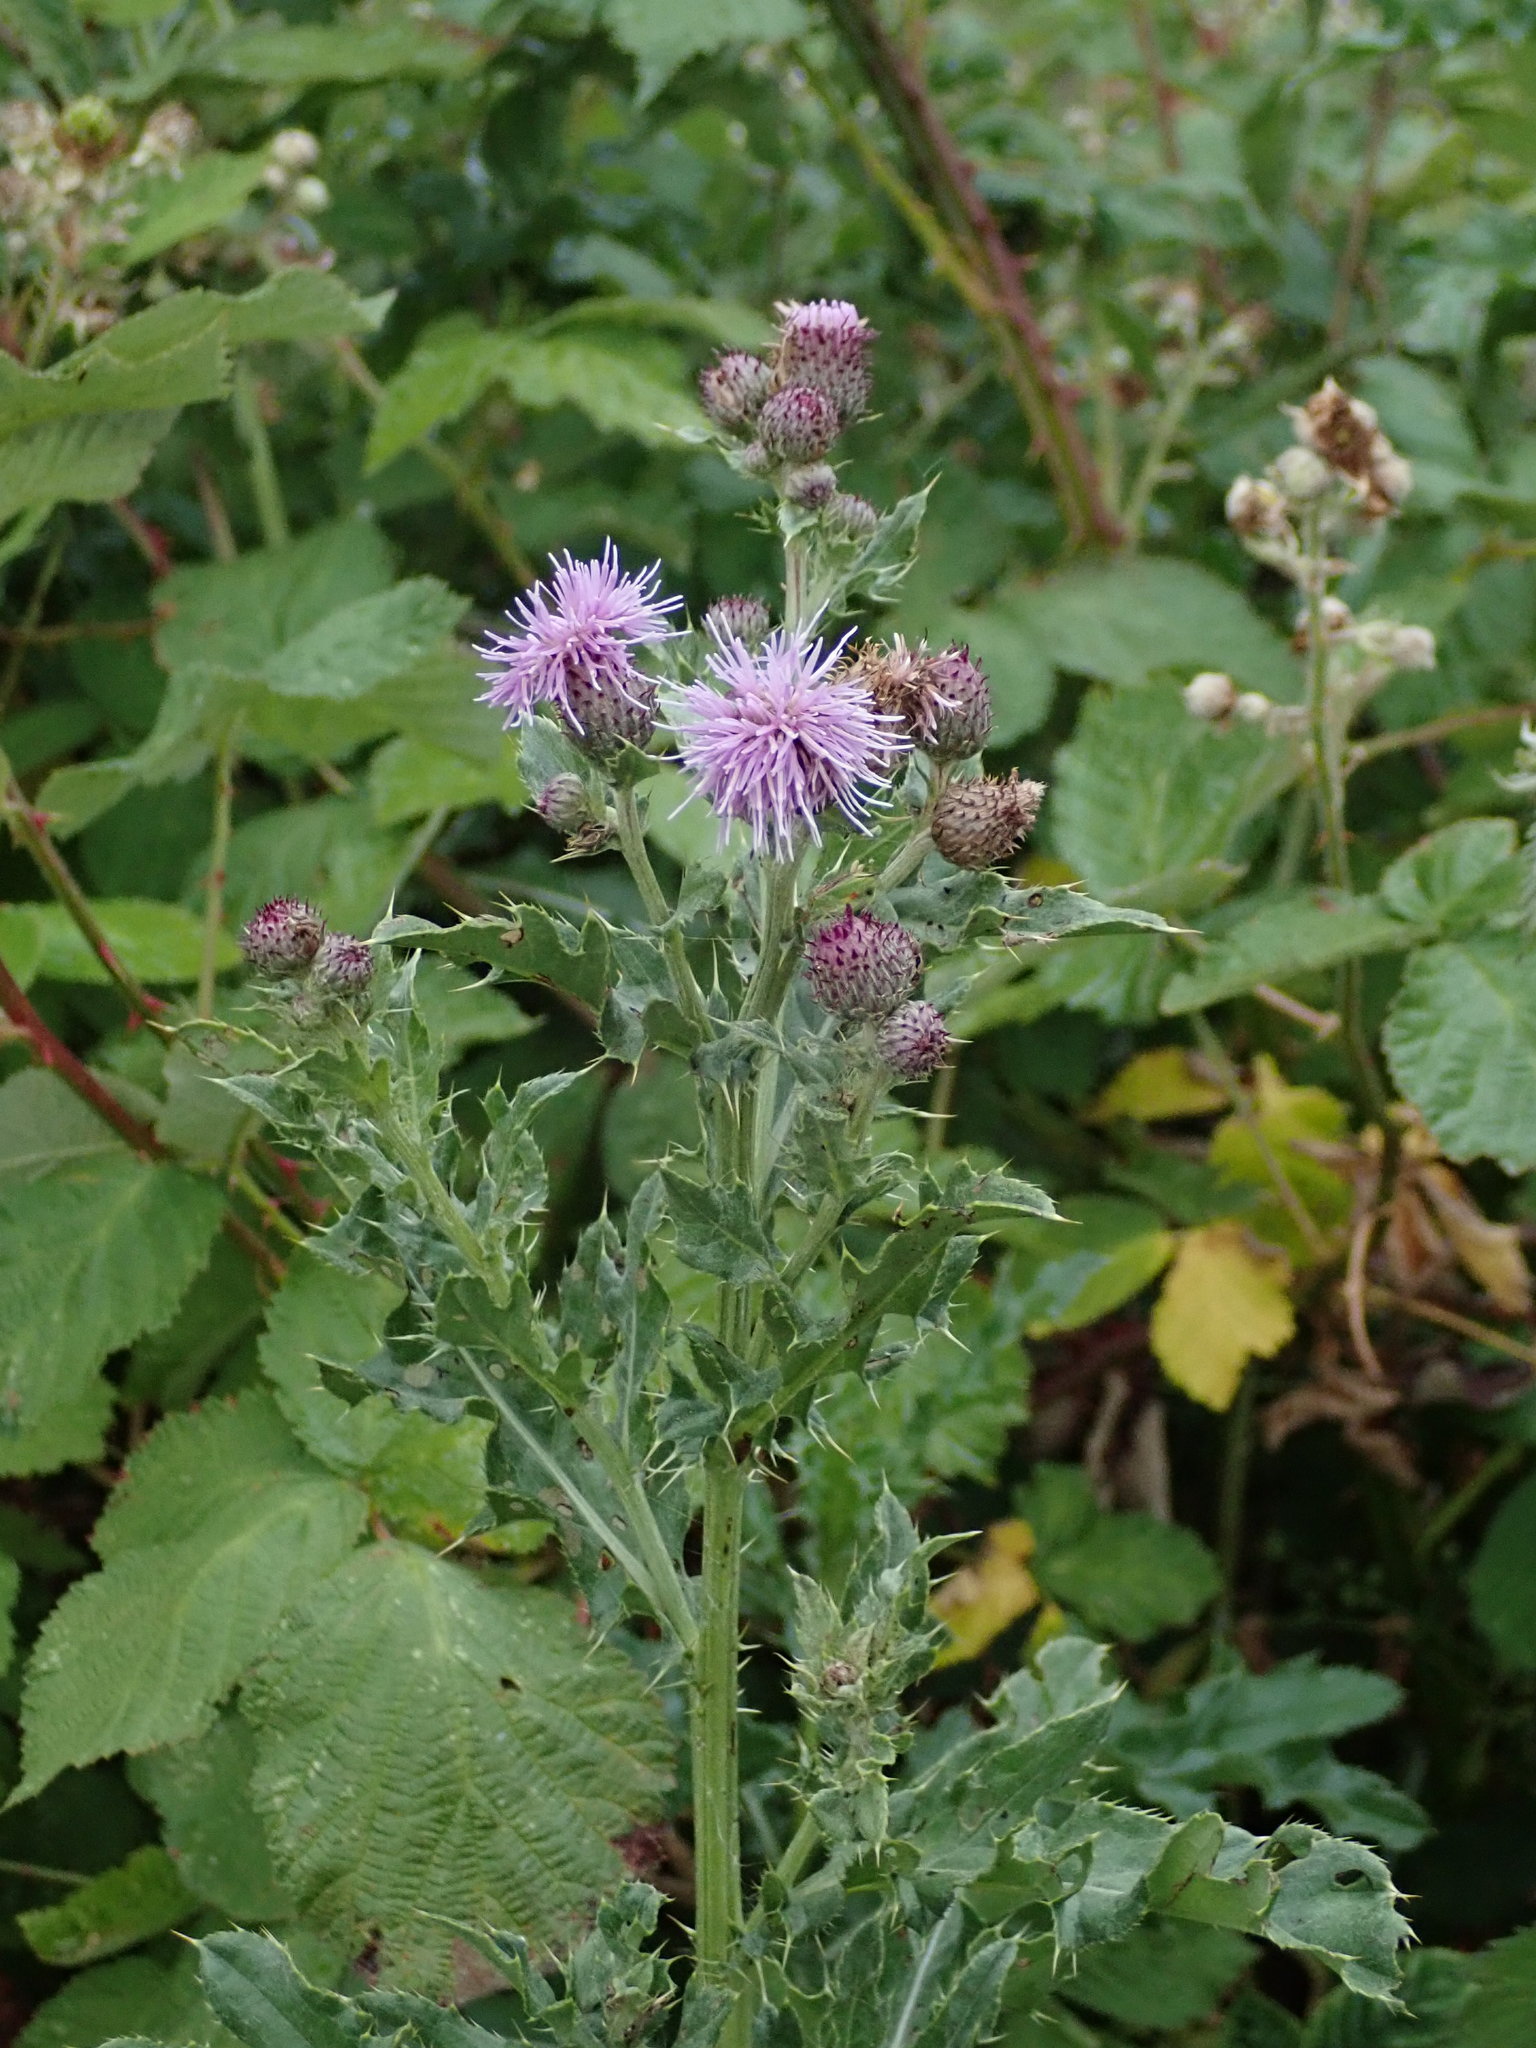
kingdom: Plantae
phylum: Tracheophyta
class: Magnoliopsida
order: Asterales
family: Asteraceae
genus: Cirsium
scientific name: Cirsium arvense
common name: Creeping thistle
